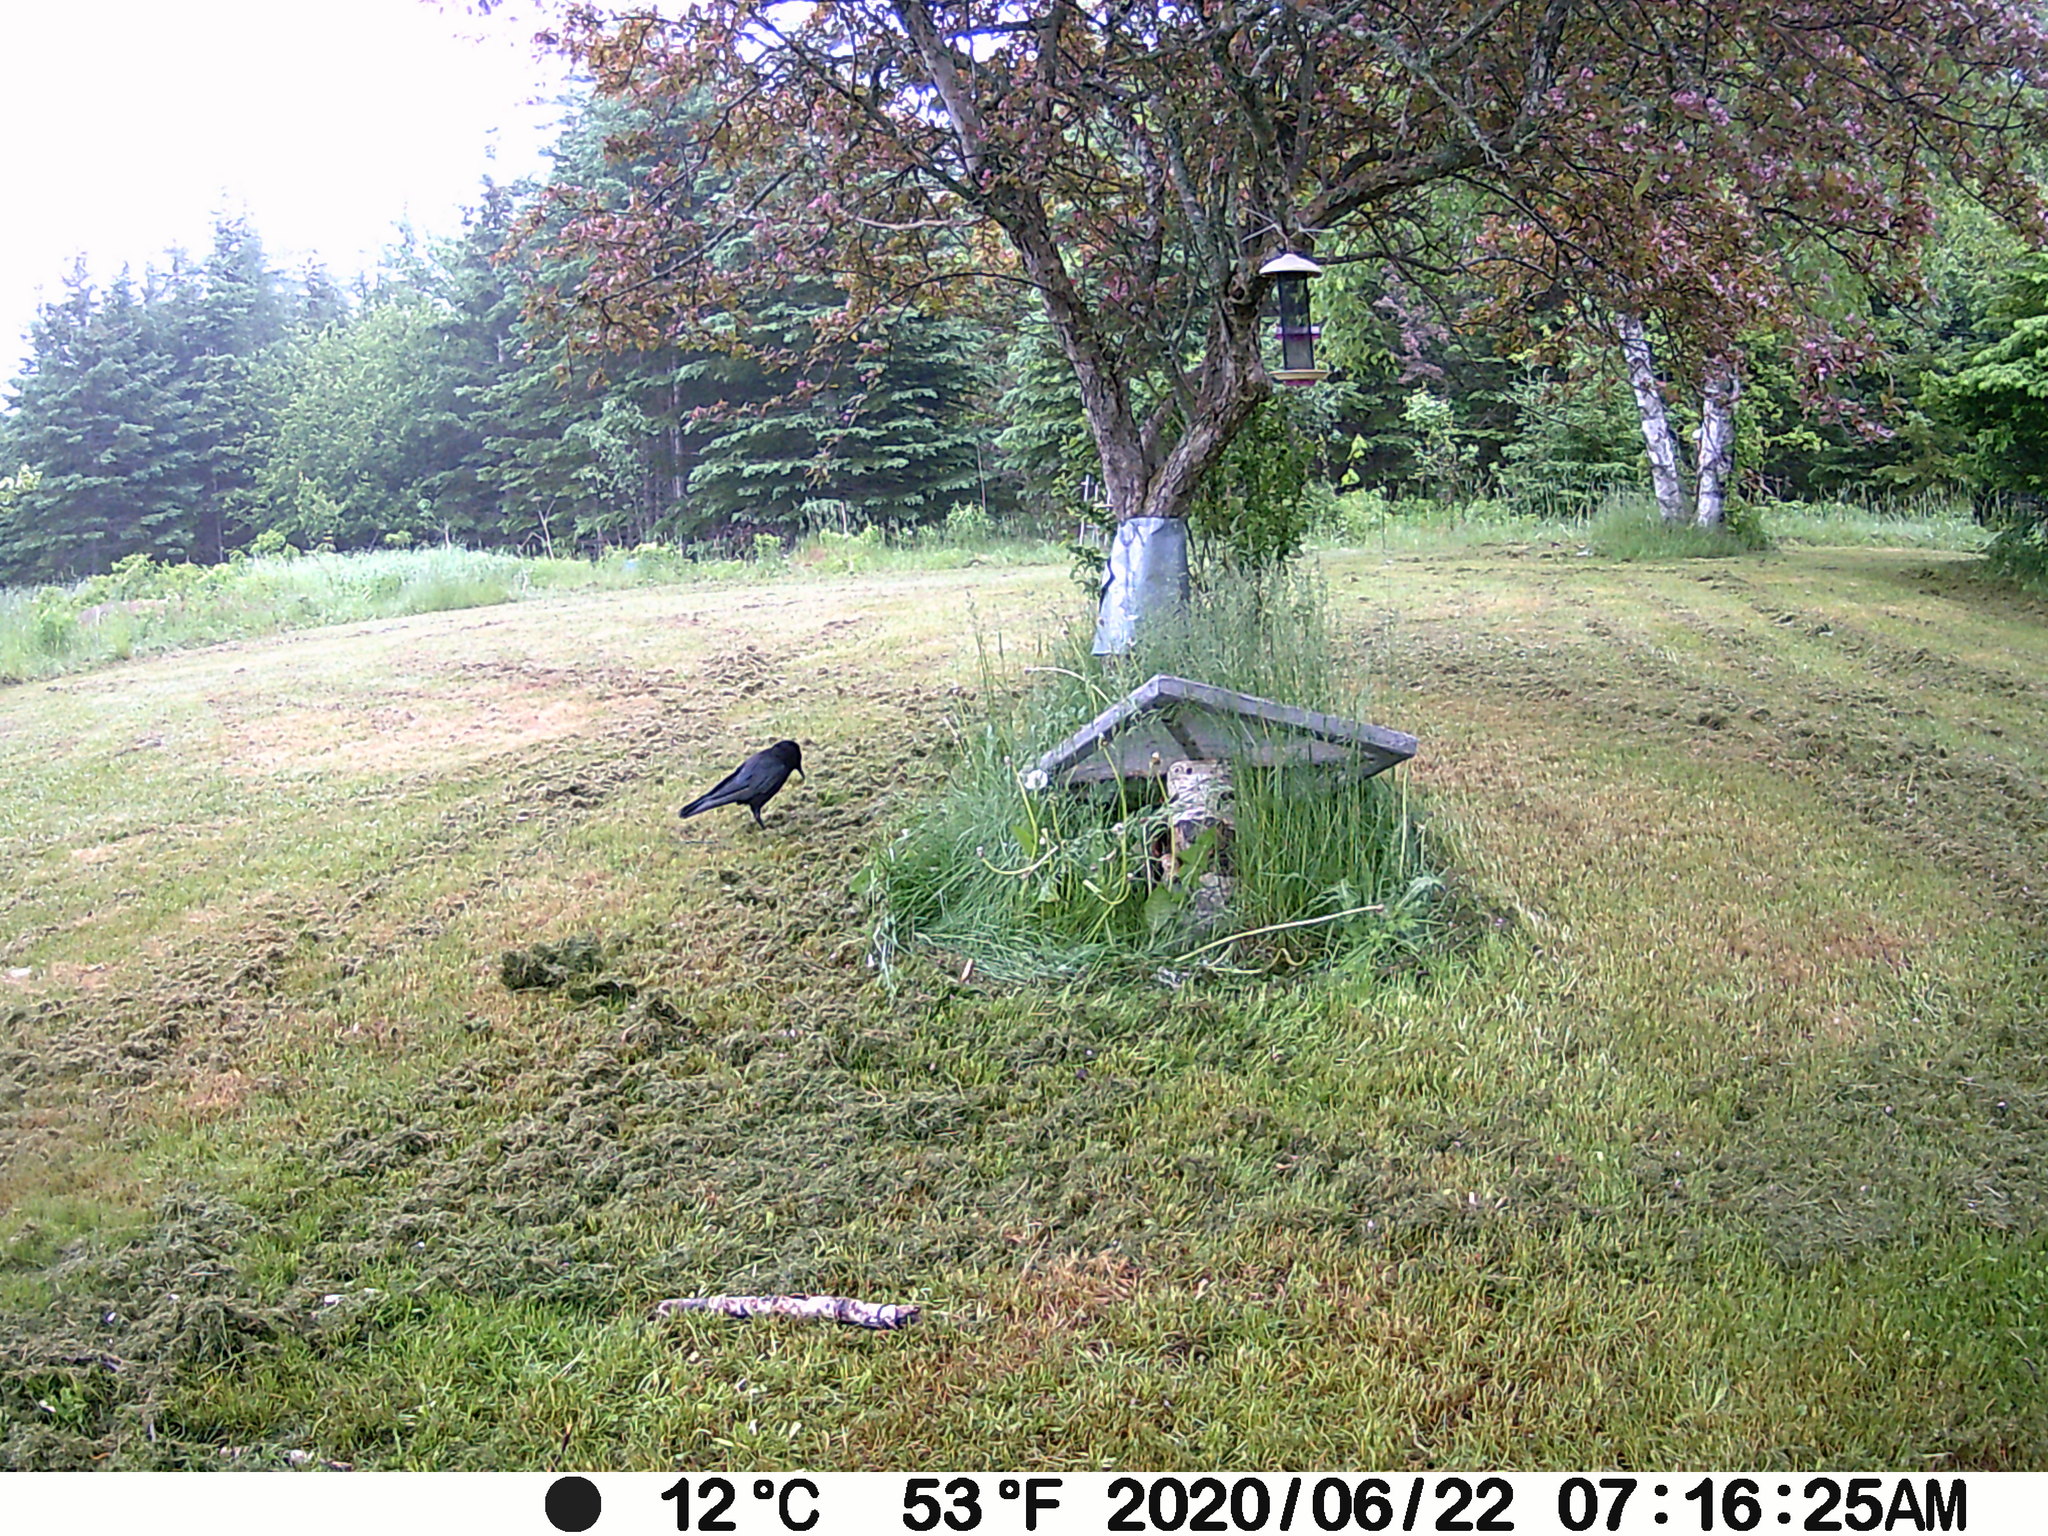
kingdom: Animalia
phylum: Chordata
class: Aves
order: Passeriformes
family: Corvidae
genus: Corvus
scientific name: Corvus brachyrhynchos
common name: American crow
